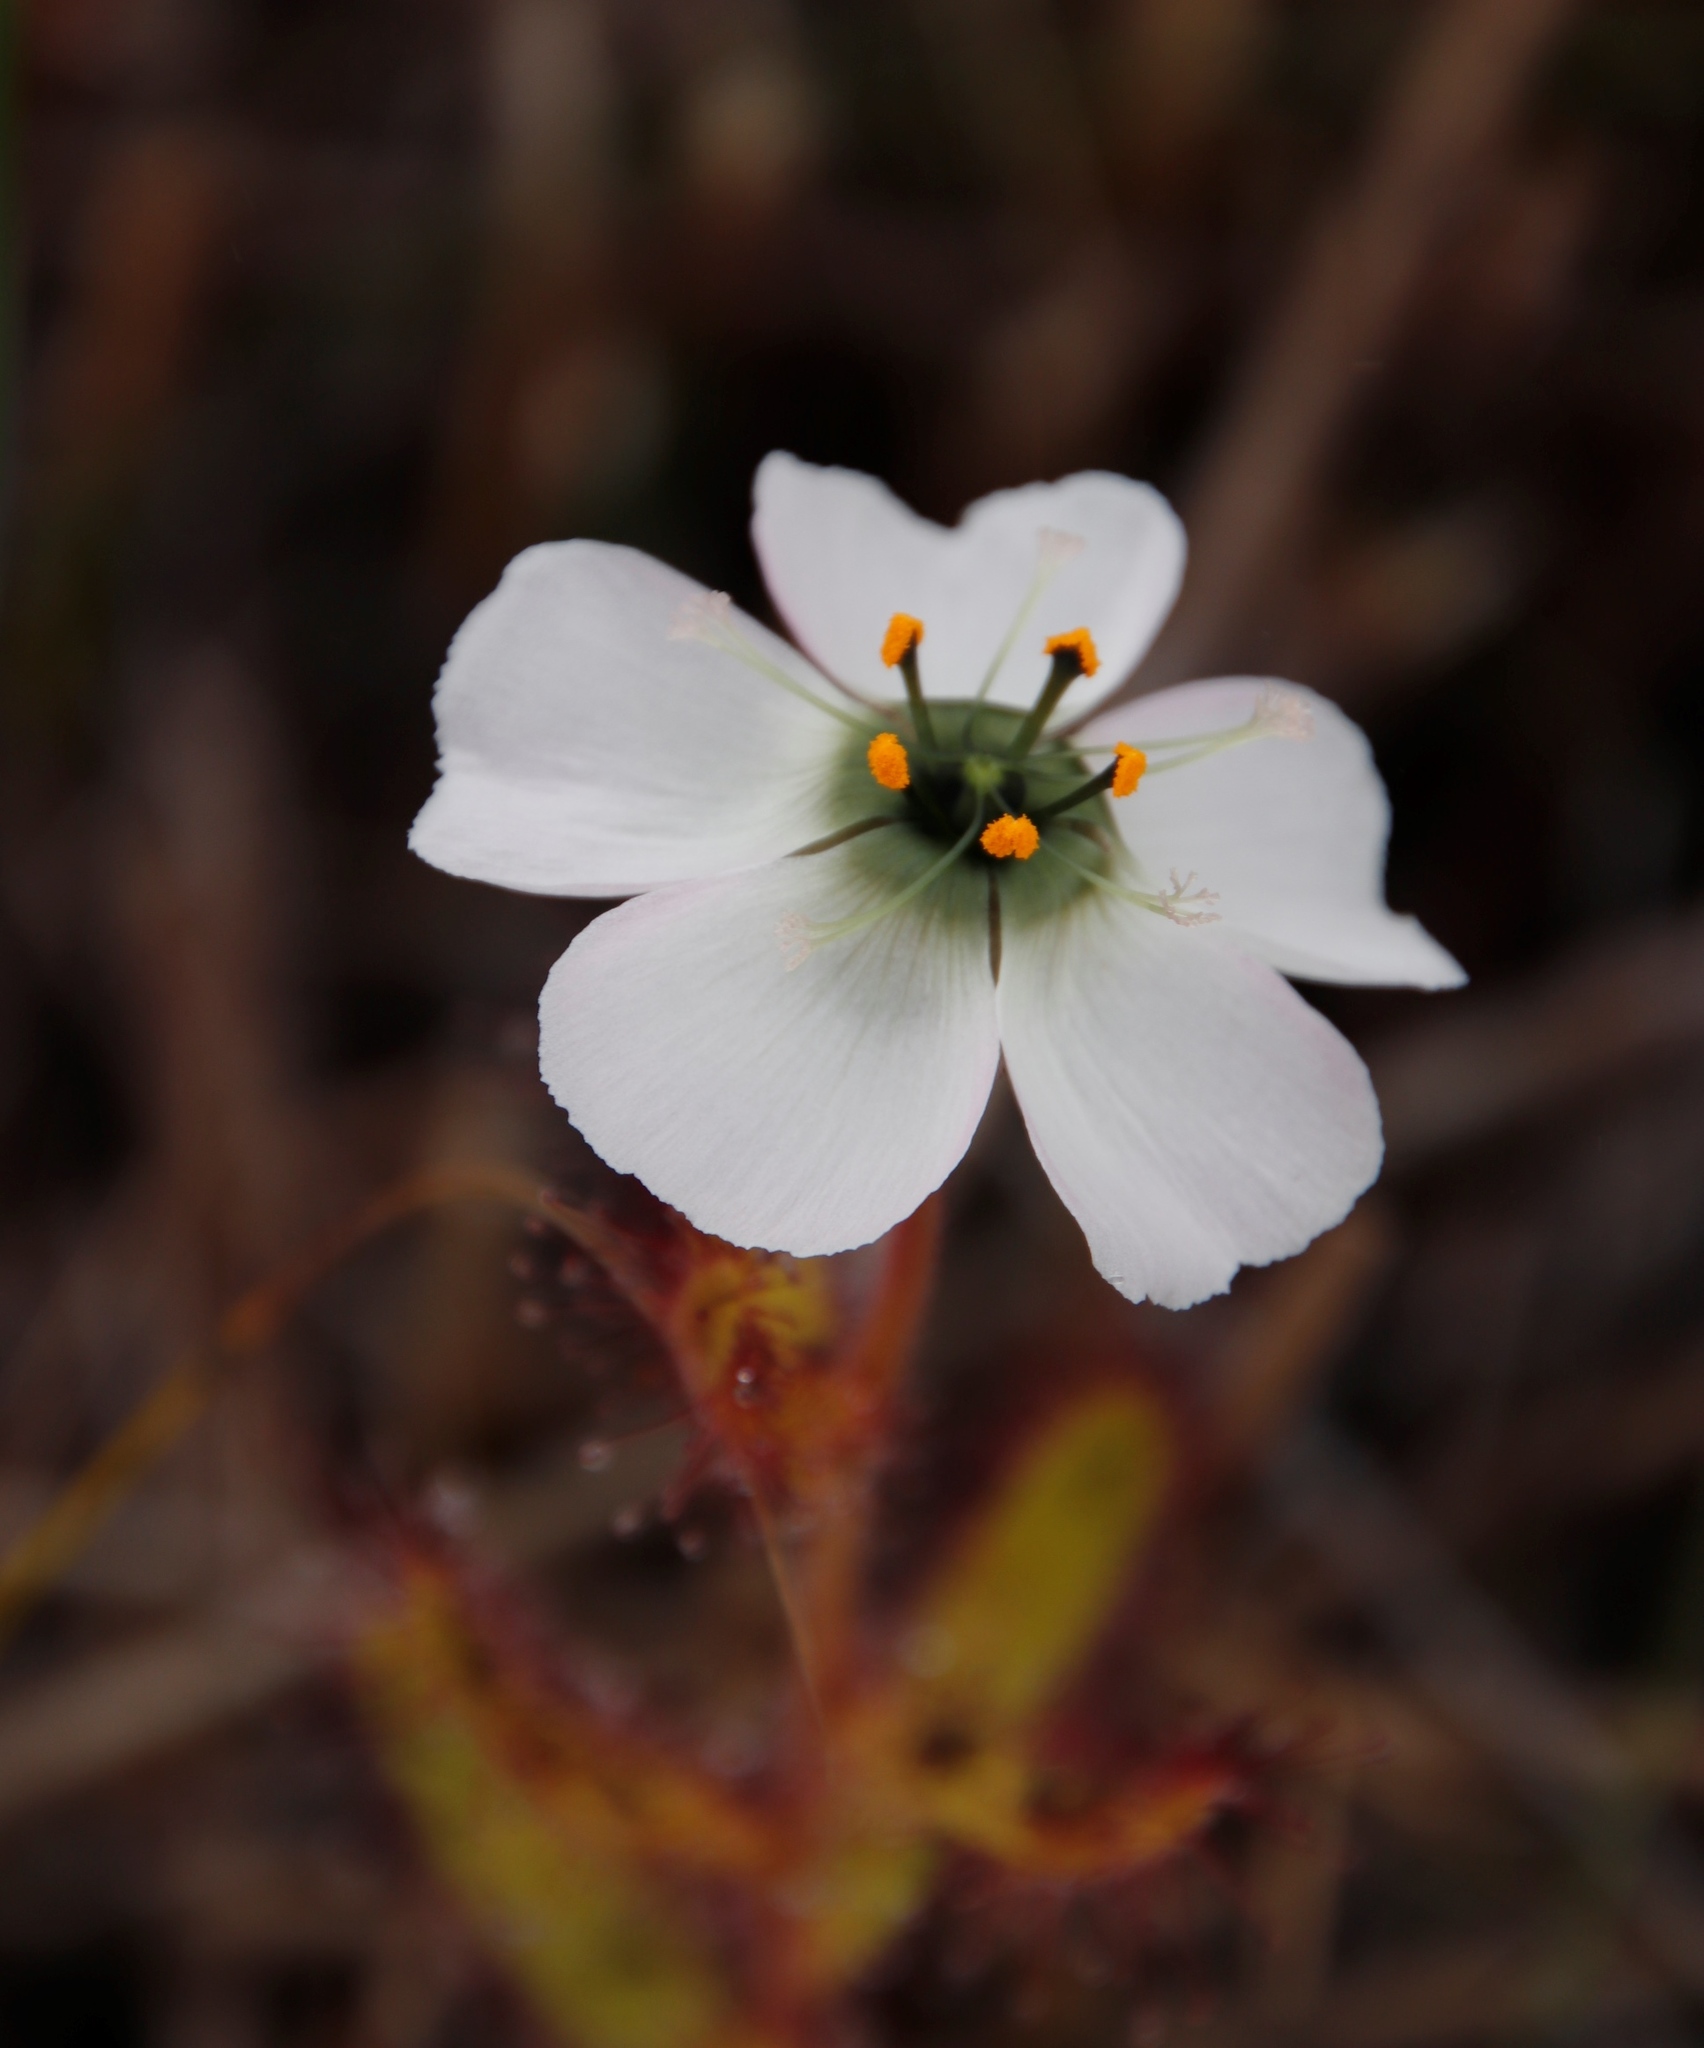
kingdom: Plantae
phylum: Tracheophyta
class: Magnoliopsida
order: Caryophyllales
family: Droseraceae
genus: Drosera
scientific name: Drosera cistiflora
